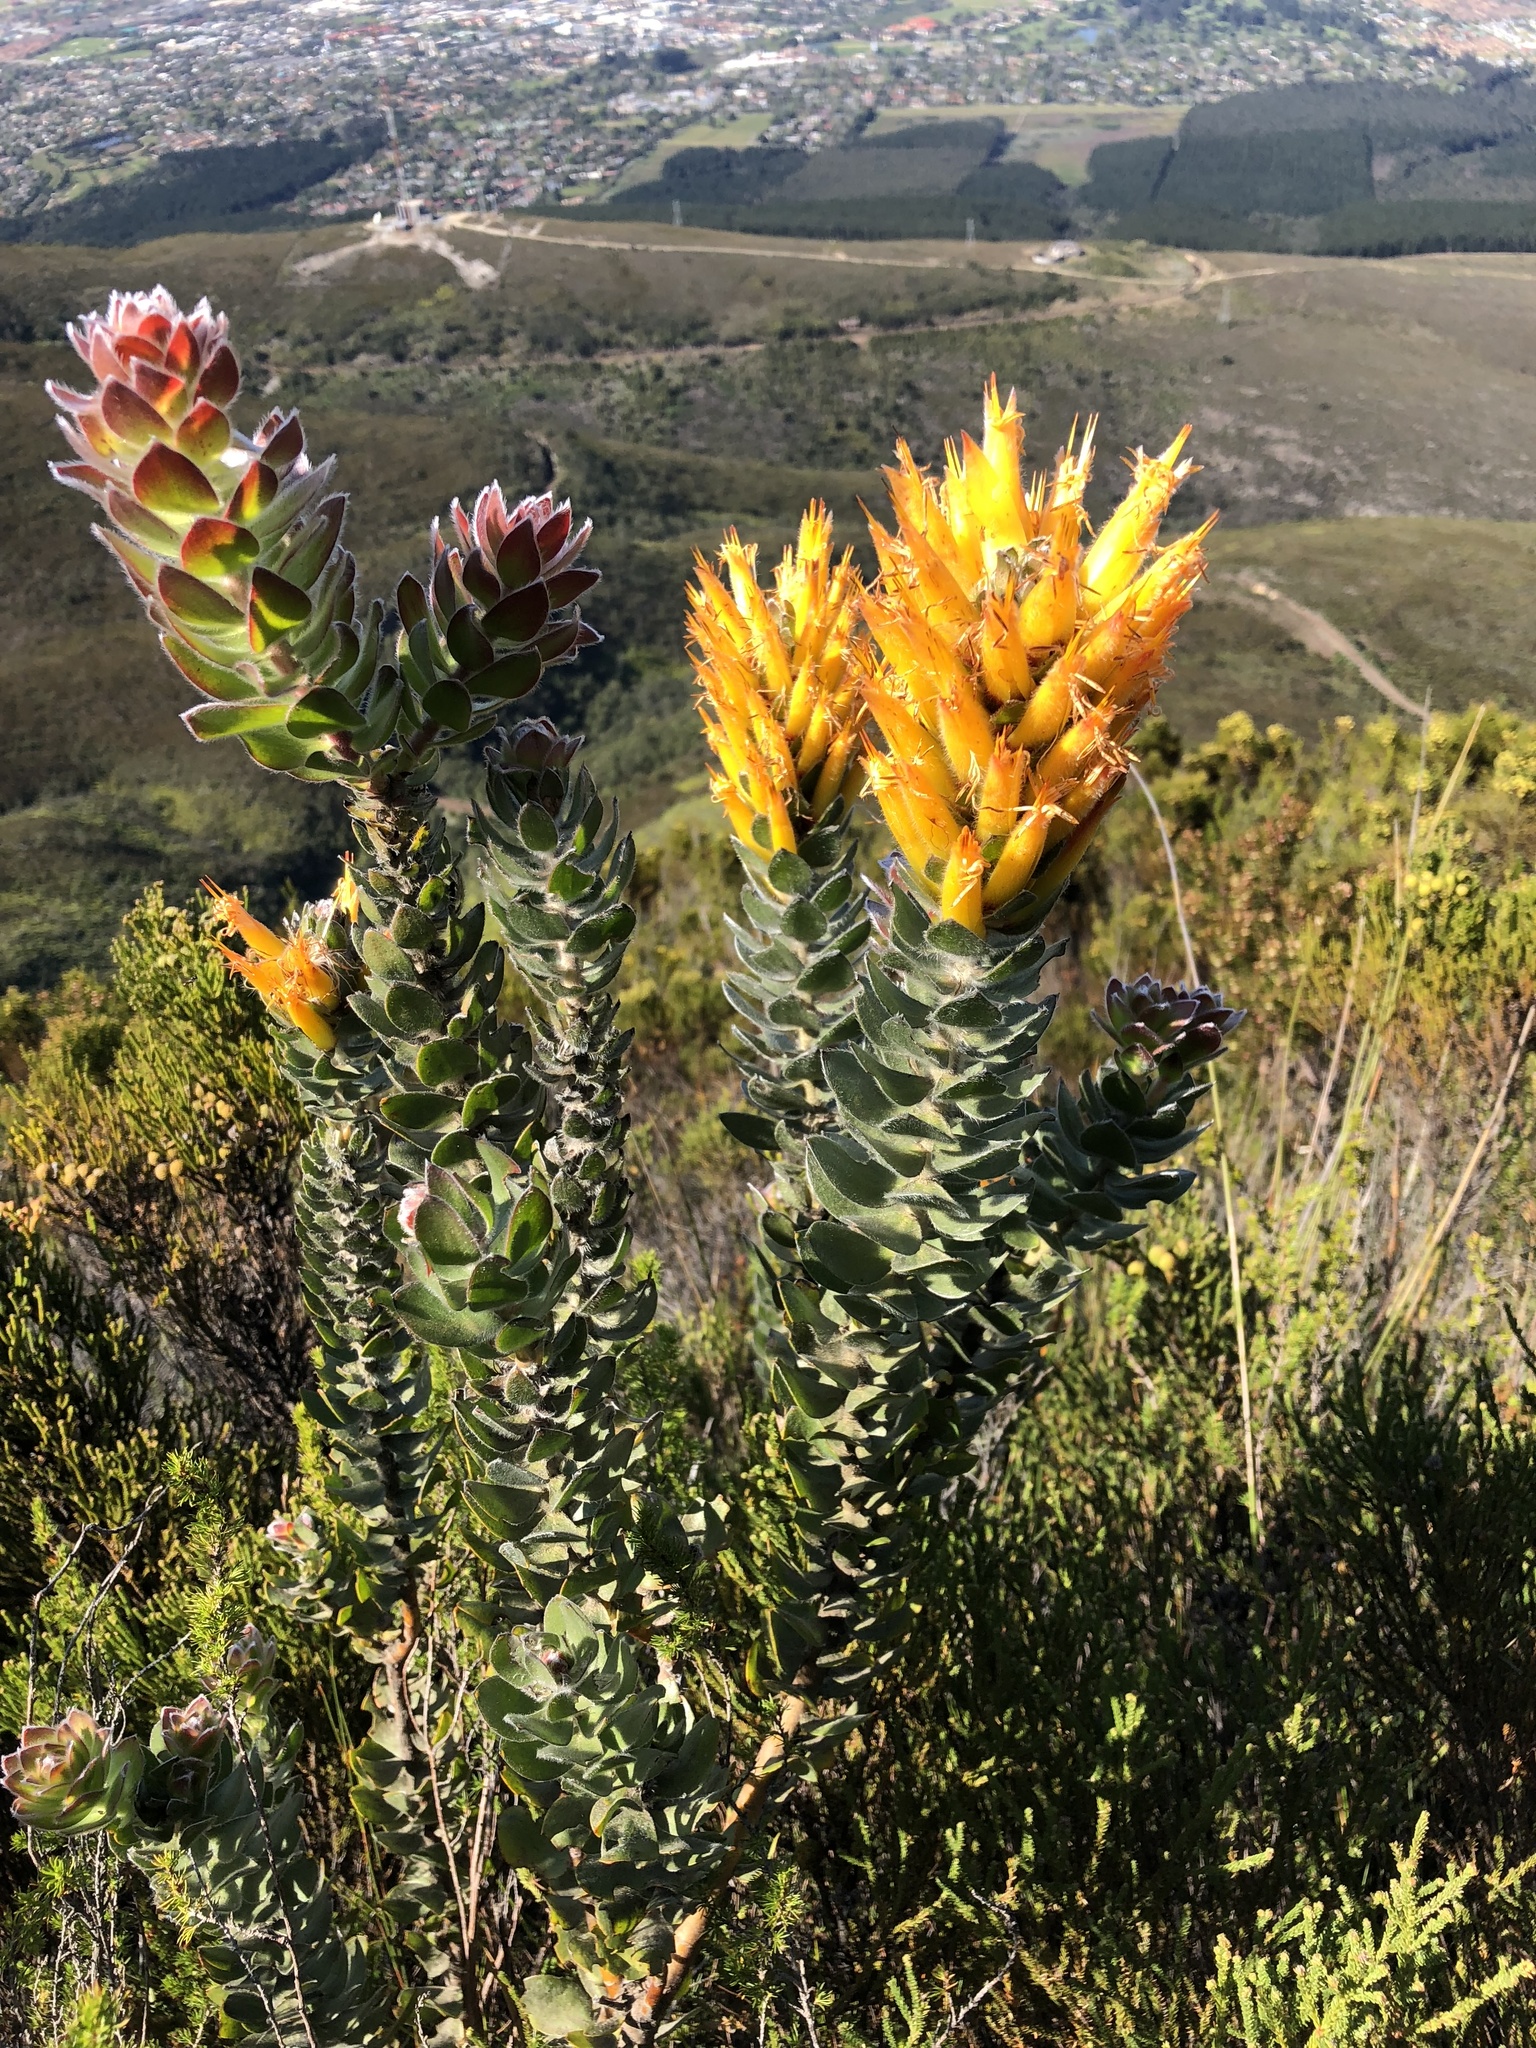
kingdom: Plantae
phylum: Tracheophyta
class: Magnoliopsida
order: Proteales
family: Proteaceae
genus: Mimetes
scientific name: Mimetes pauciflora
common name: Three-flowered pagoda
